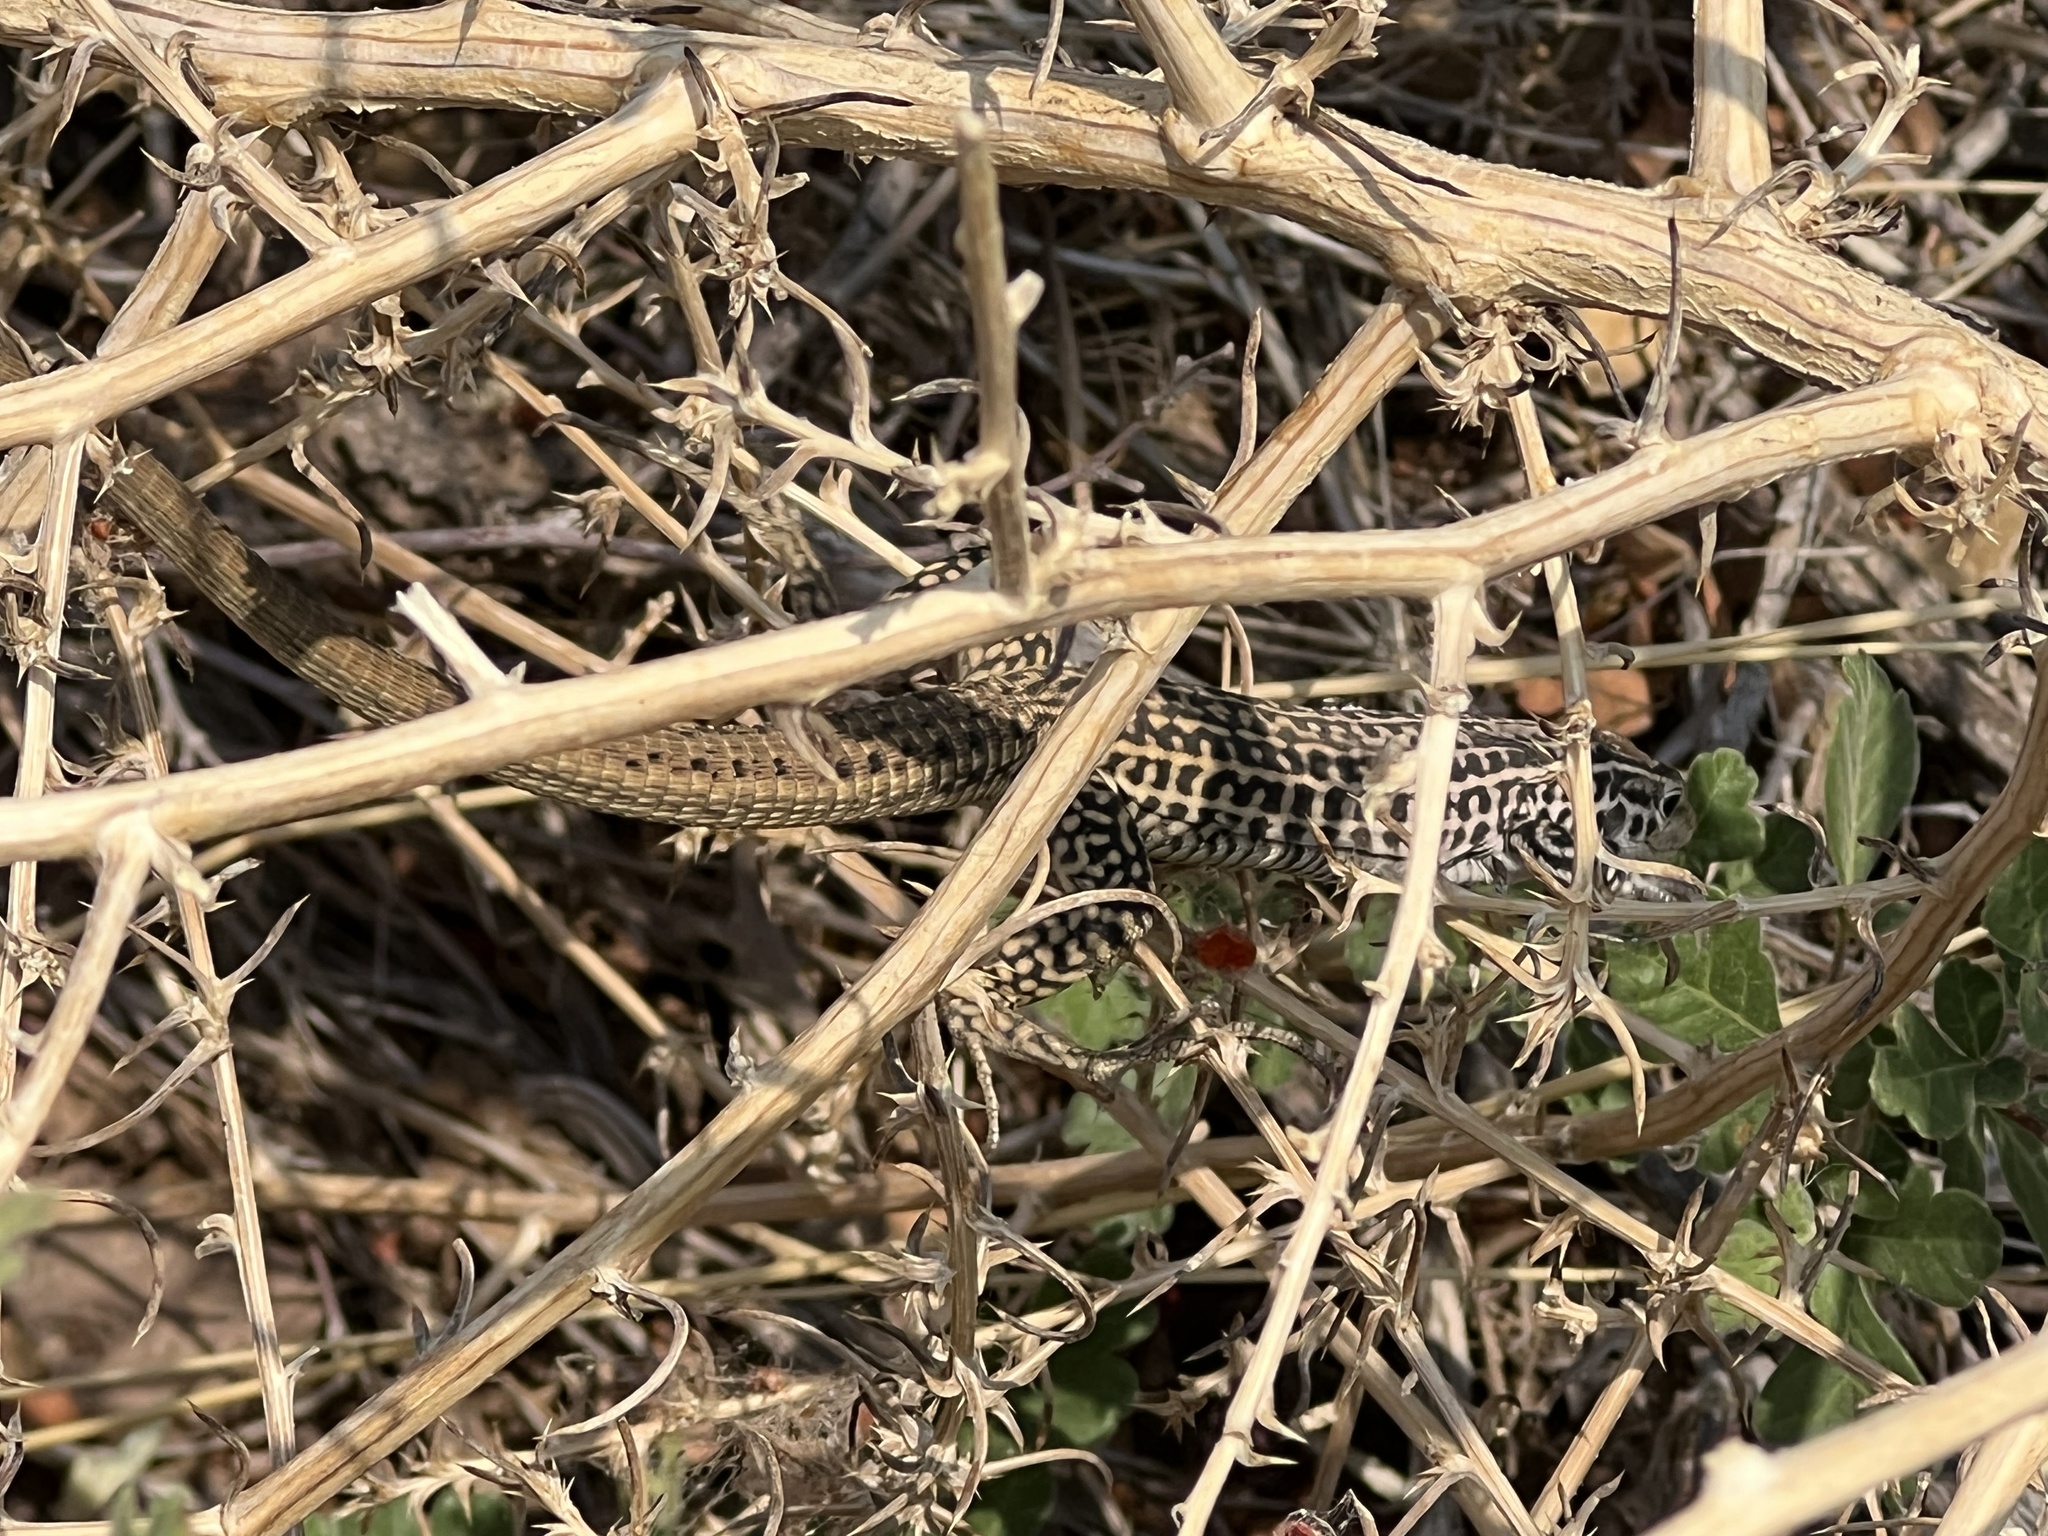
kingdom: Animalia
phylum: Chordata
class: Squamata
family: Teiidae
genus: Aspidoscelis
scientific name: Aspidoscelis tesselatus
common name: Common checkered whiptail [tesselata]
